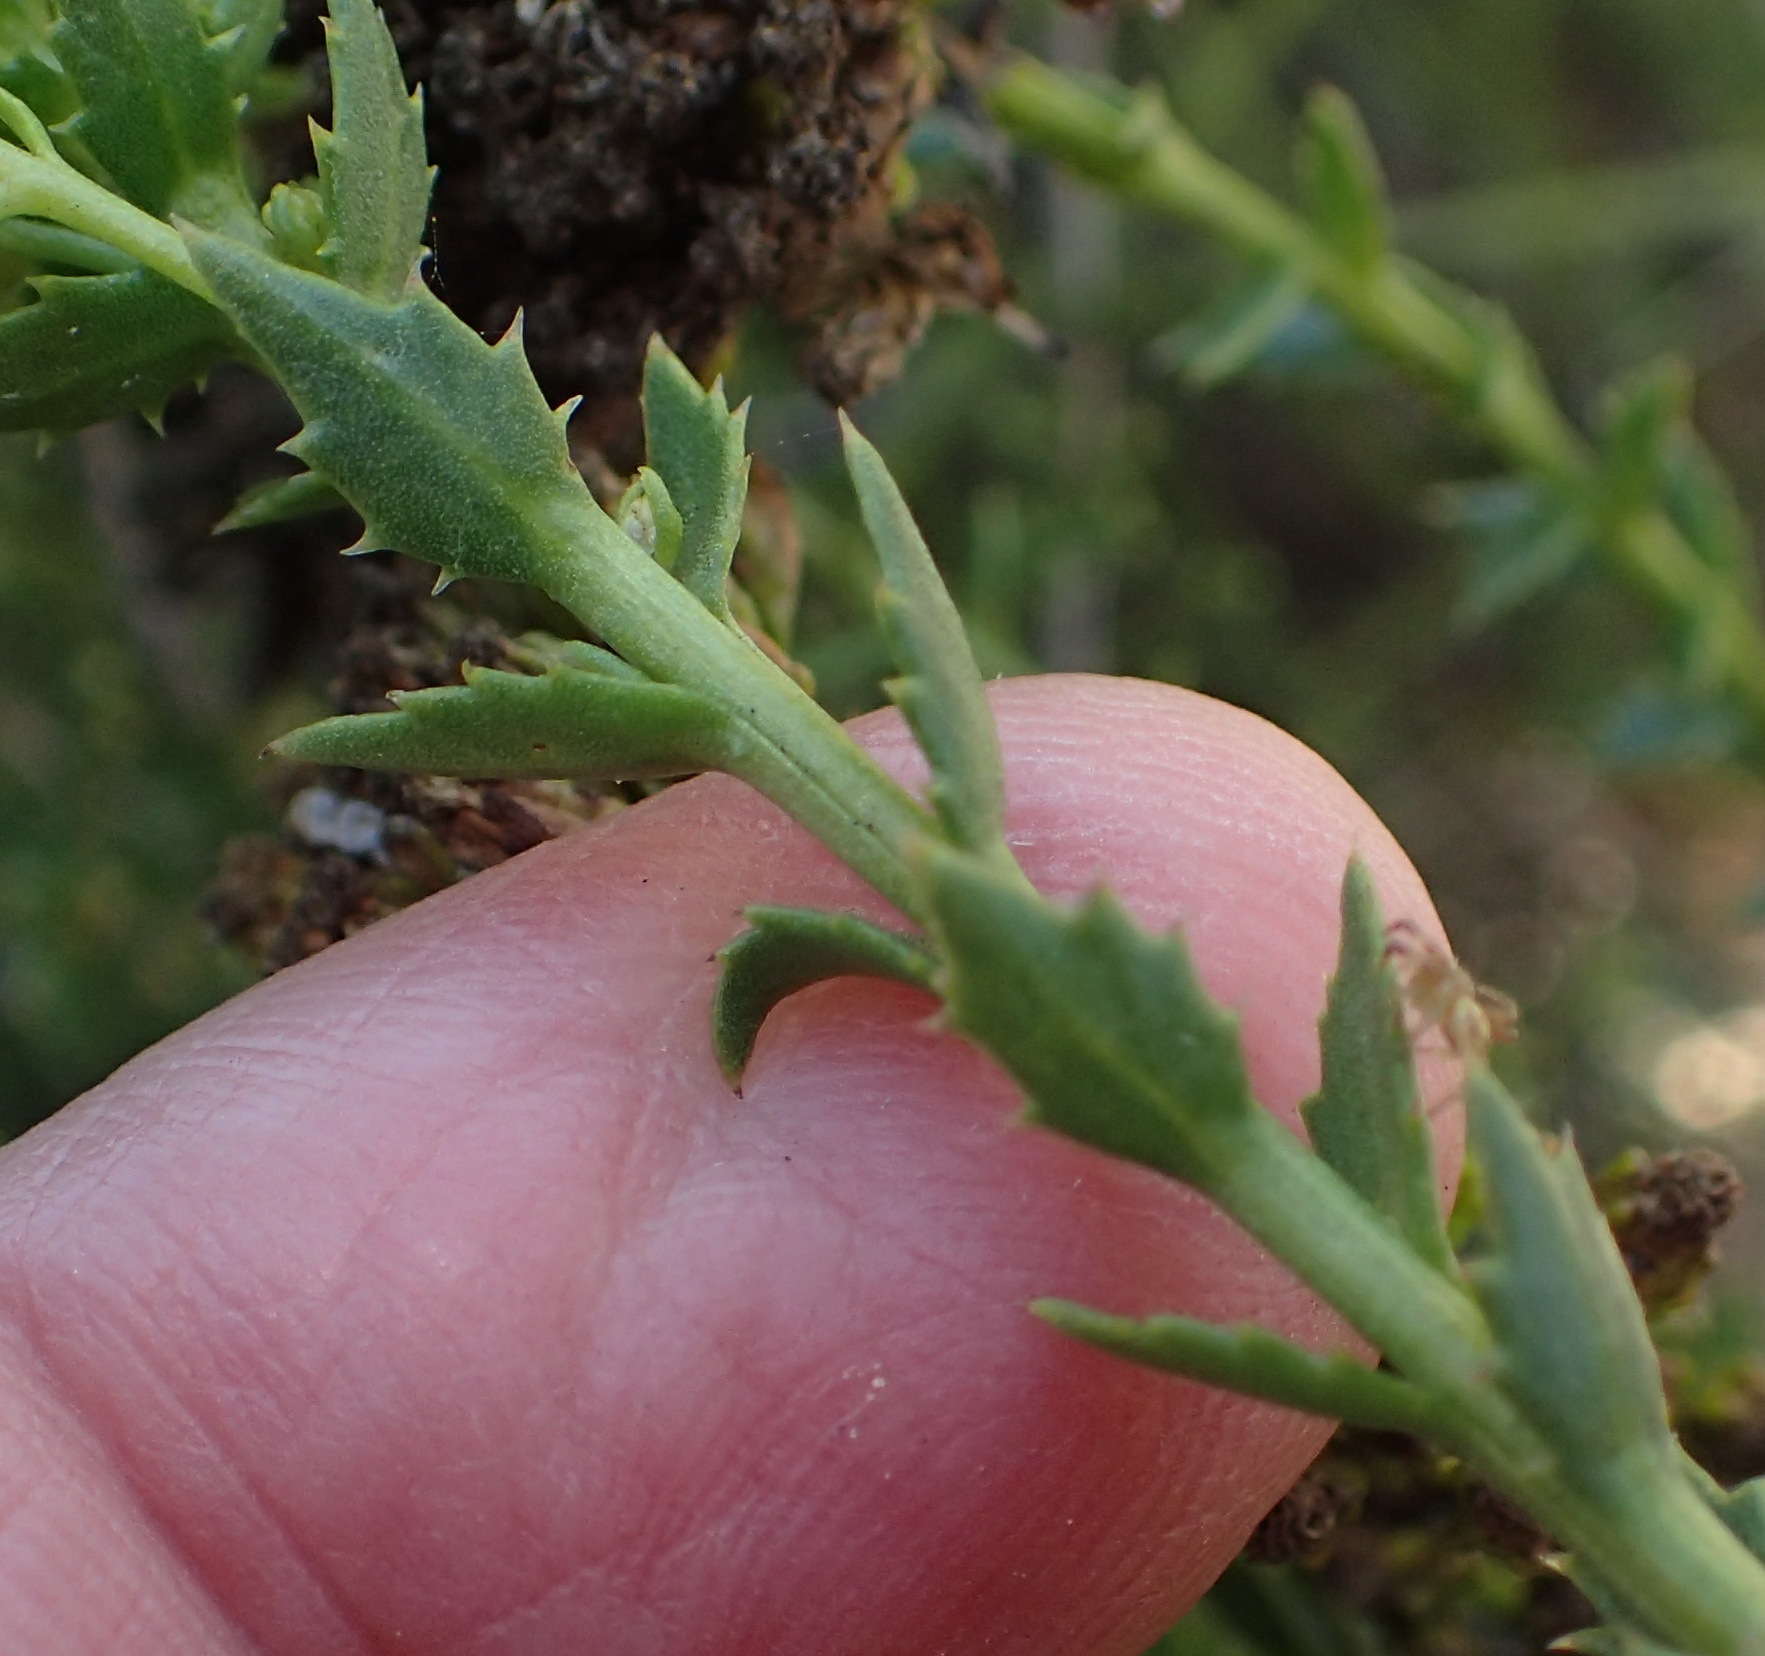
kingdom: Plantae
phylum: Tracheophyta
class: Magnoliopsida
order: Asterales
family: Asteraceae
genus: Athanasia
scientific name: Athanasia dentata
